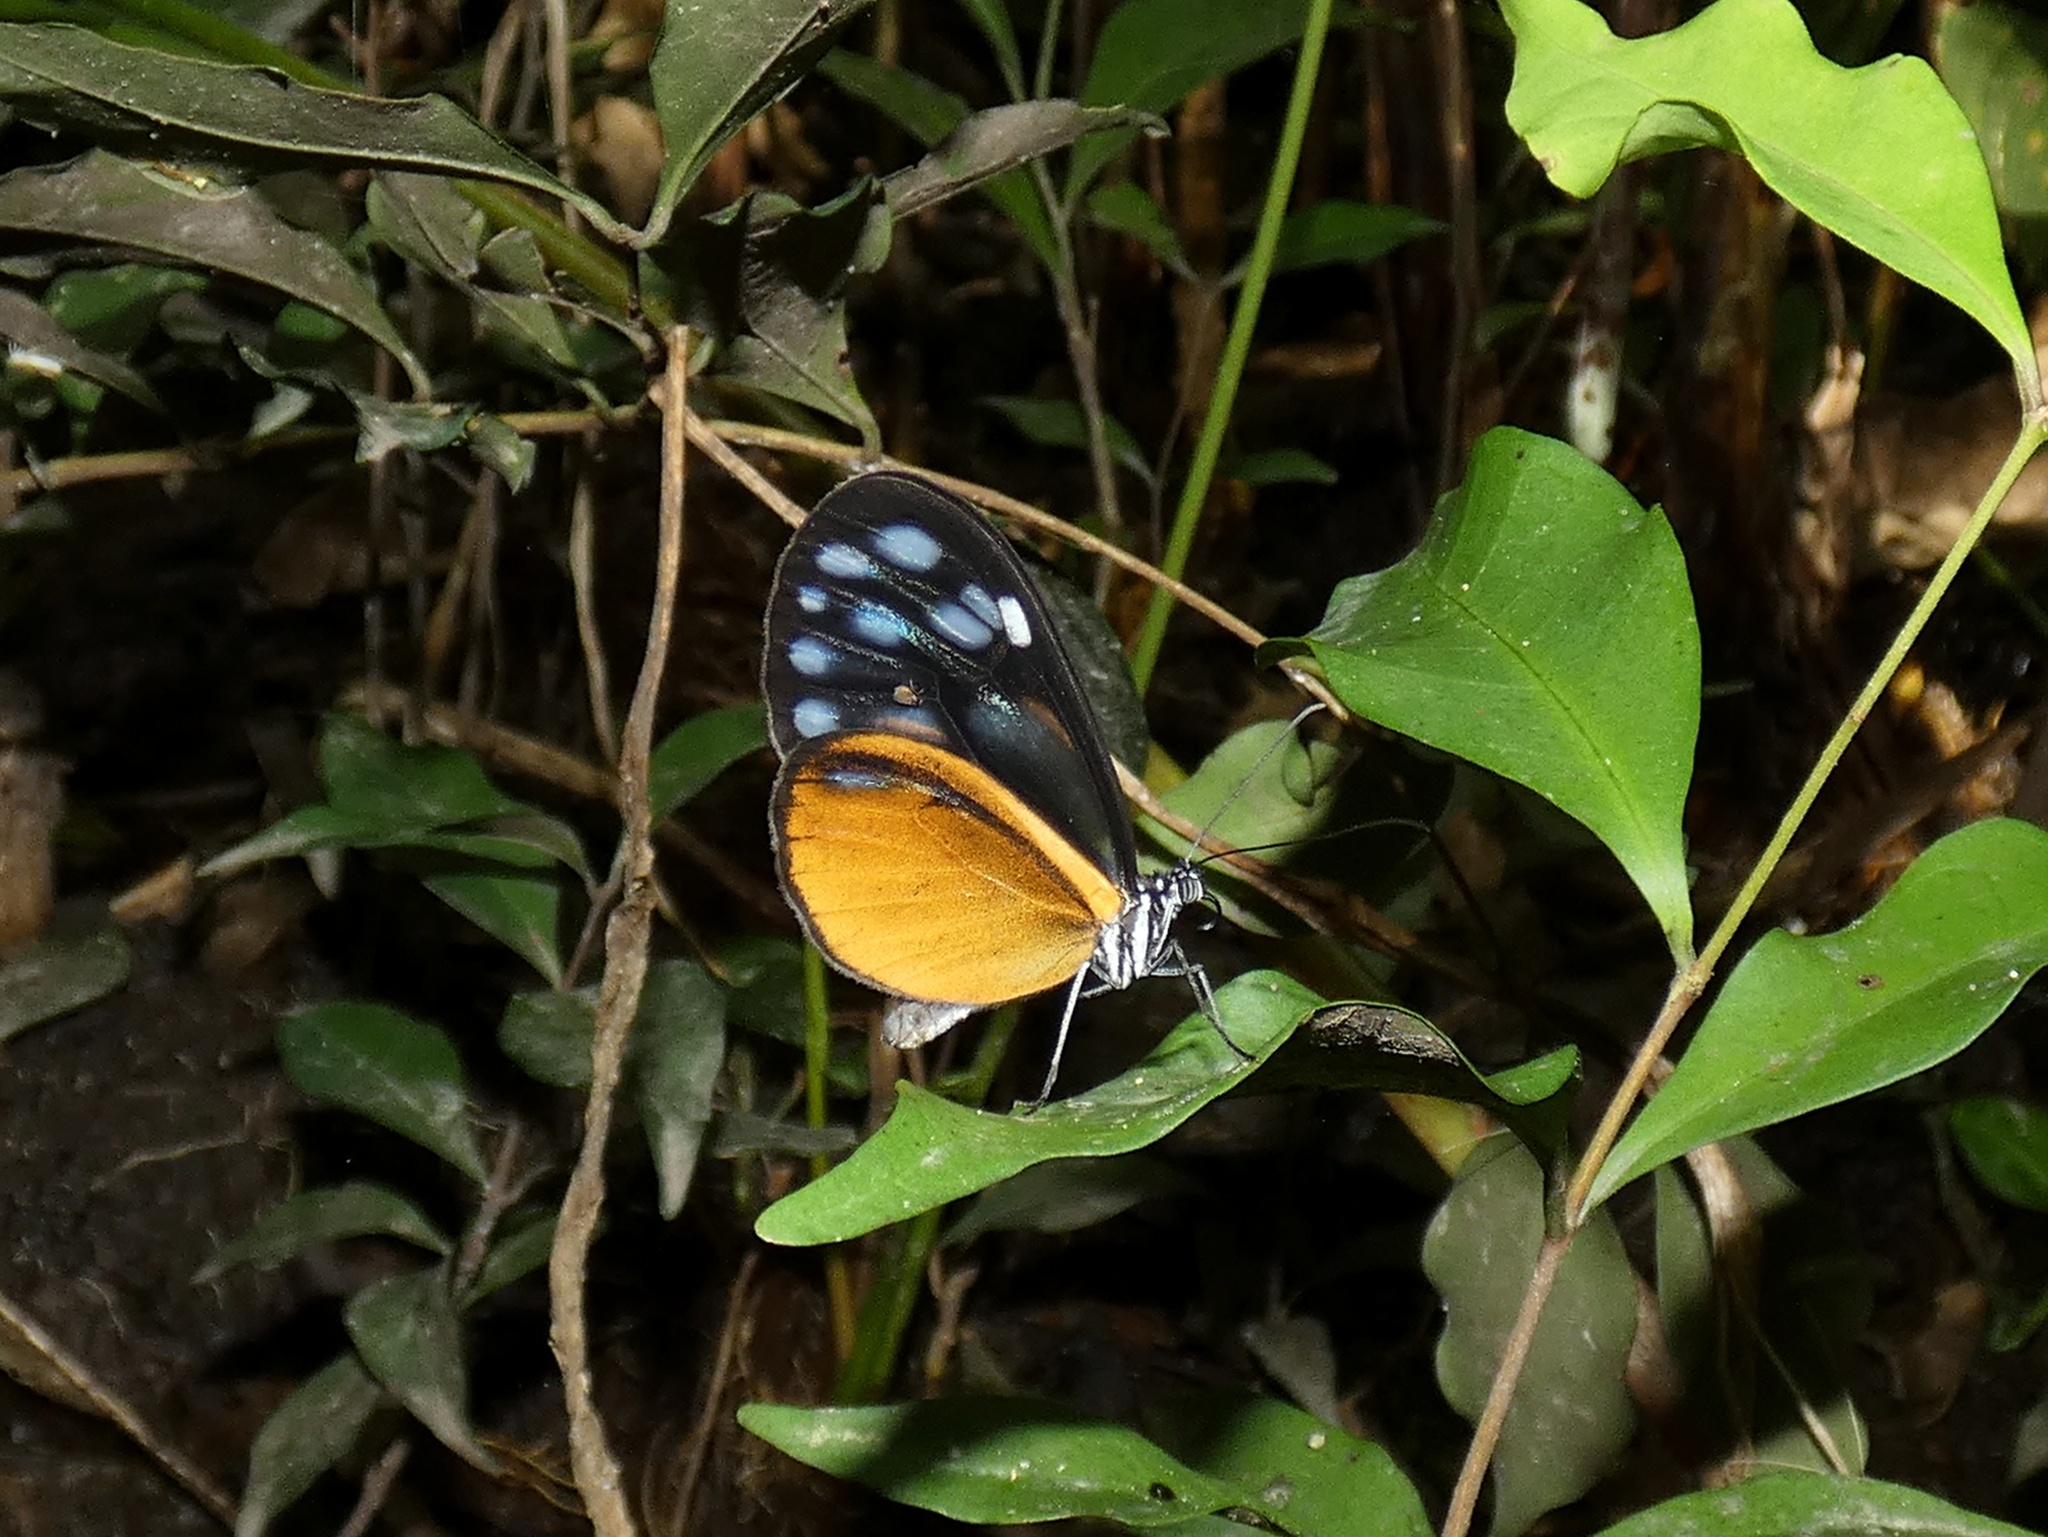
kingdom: Animalia
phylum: Arthropoda
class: Insecta
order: Lepidoptera
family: Nymphalidae
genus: Hypoleria
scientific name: Hypoleria lavinia
